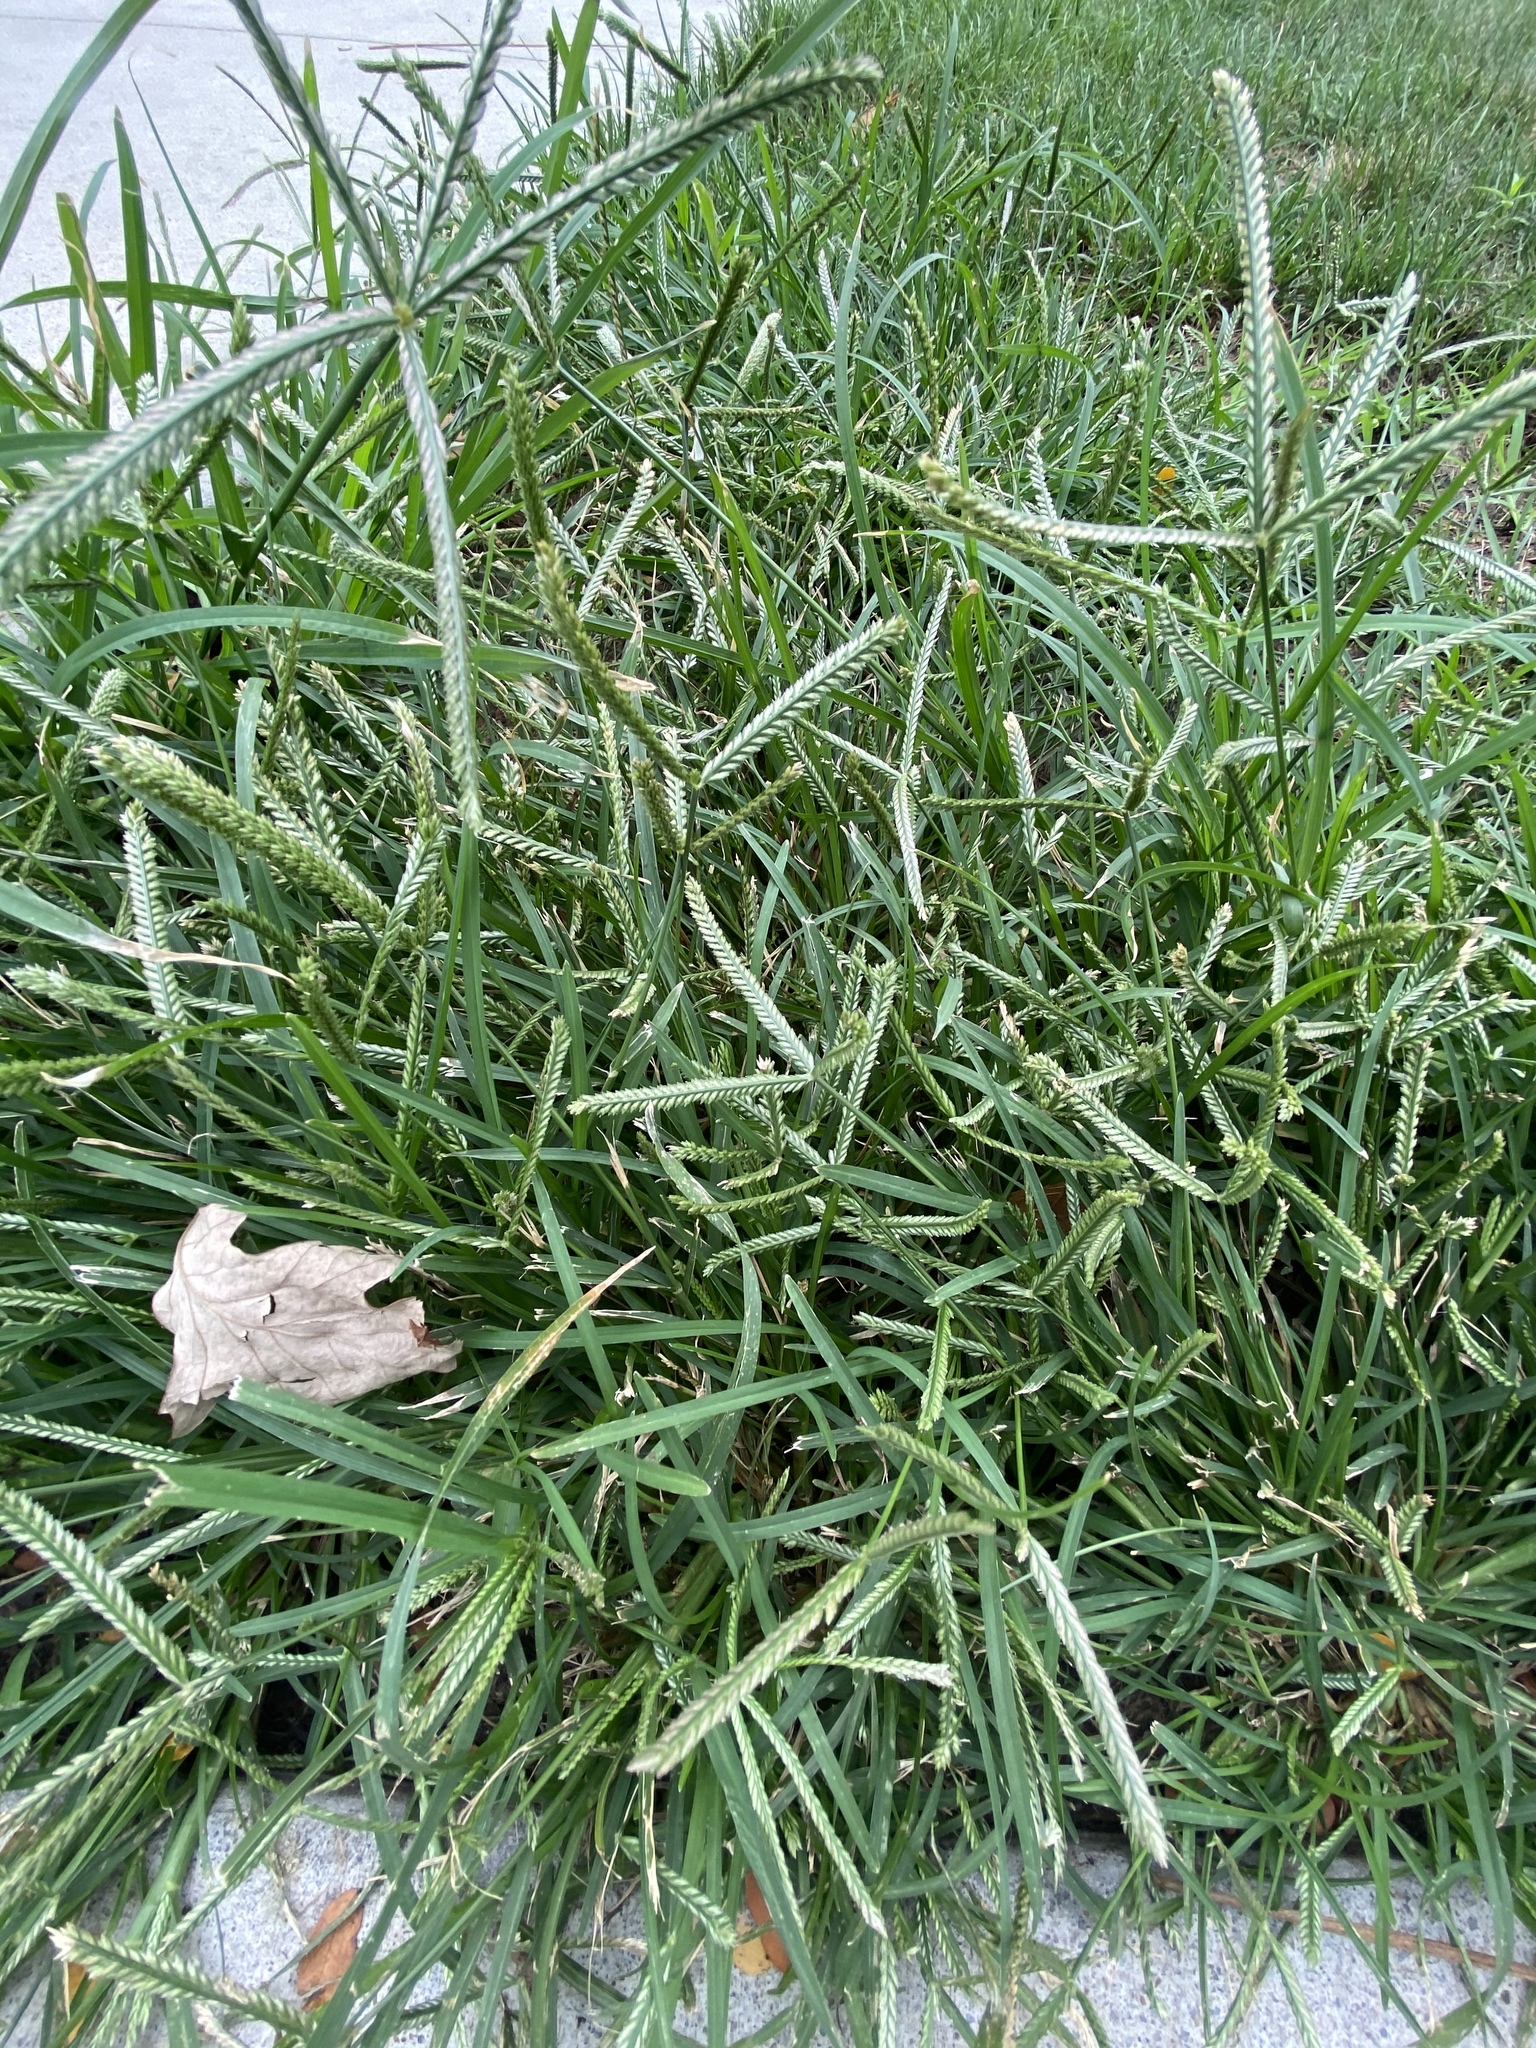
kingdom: Plantae
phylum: Tracheophyta
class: Liliopsida
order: Poales
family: Poaceae
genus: Eleusine
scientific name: Eleusine indica
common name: Yard-grass
